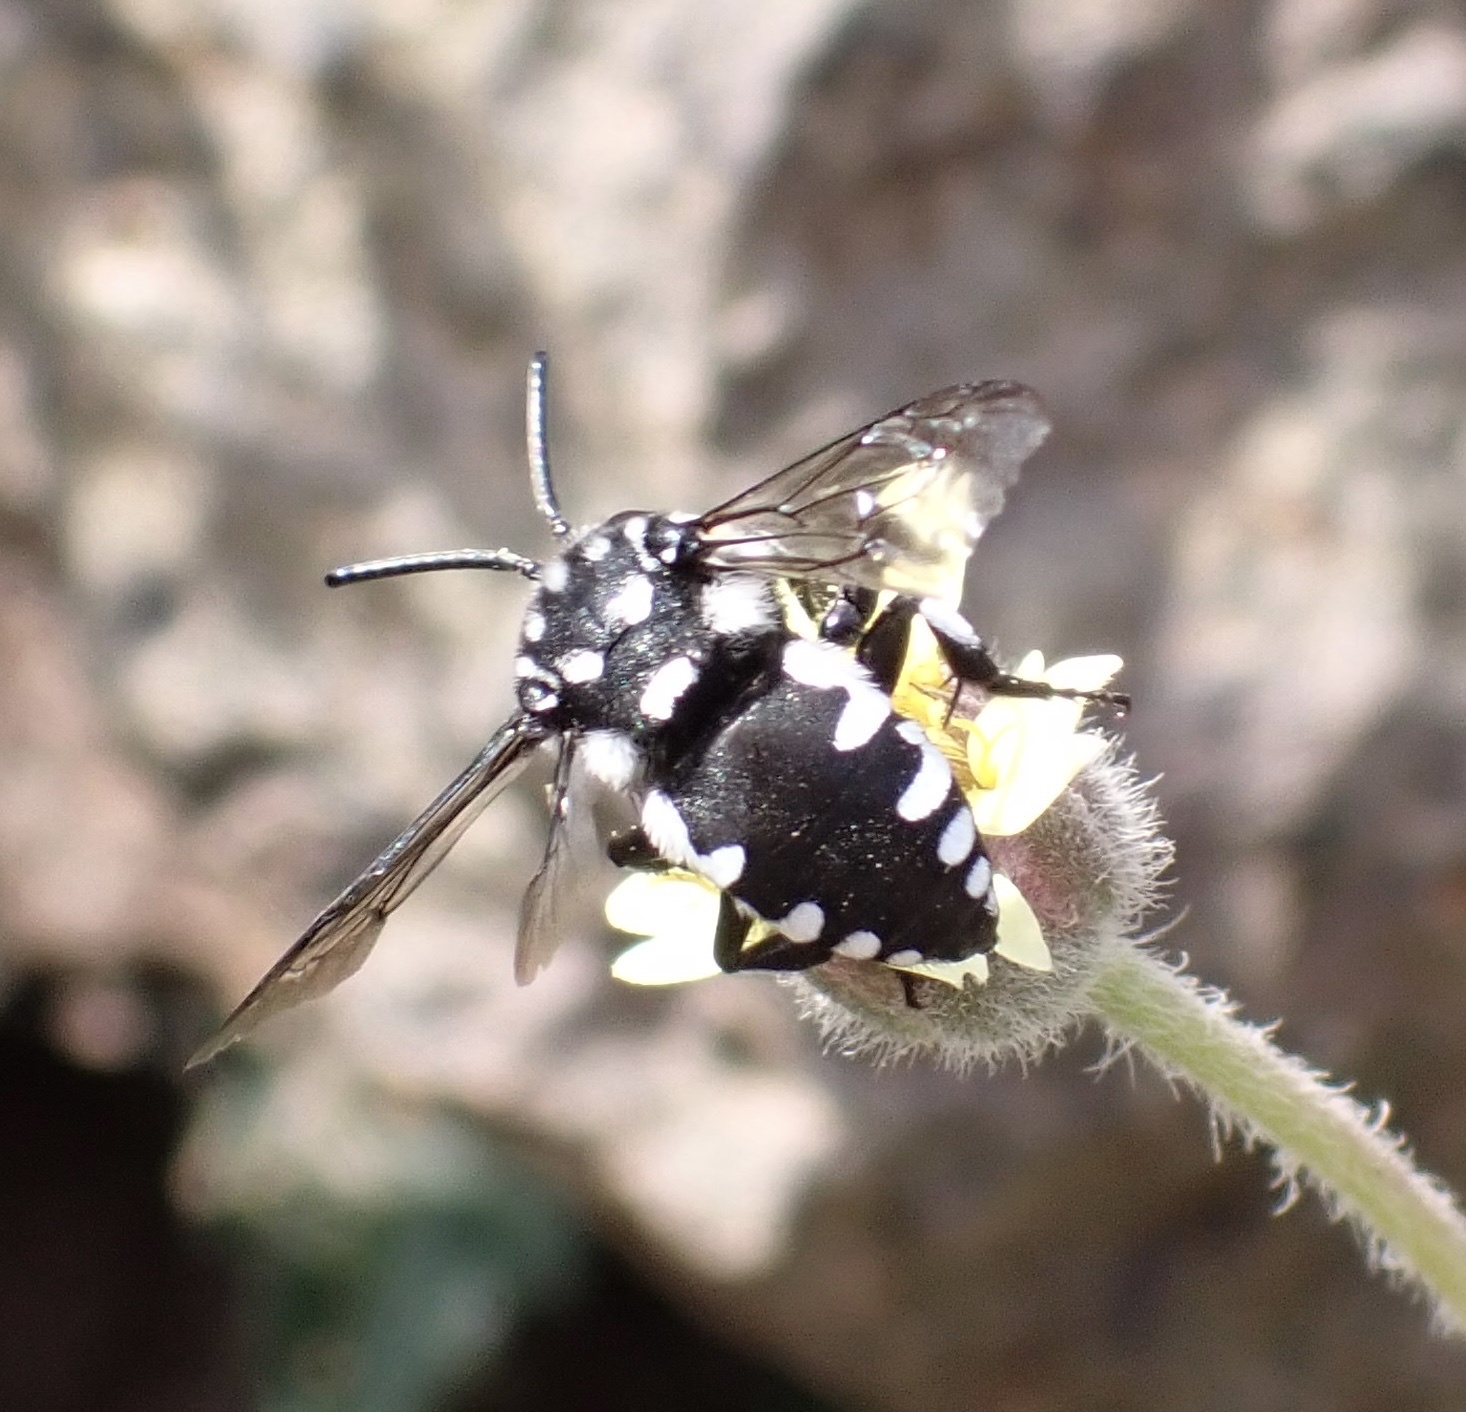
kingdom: Animalia
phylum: Arthropoda
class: Insecta
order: Hymenoptera
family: Apidae
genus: Thyreus
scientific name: Thyreus batelkai
